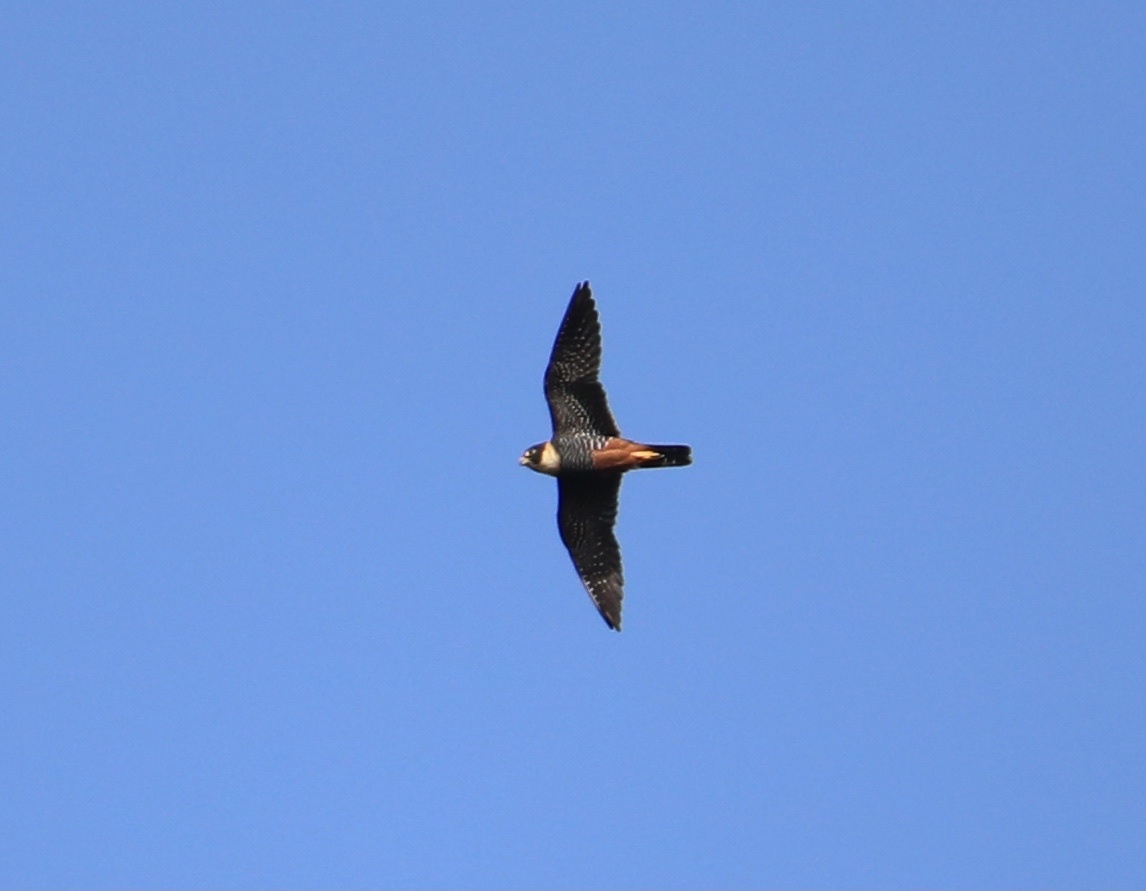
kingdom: Animalia
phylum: Chordata
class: Aves
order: Falconiformes
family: Falconidae
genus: Falco
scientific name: Falco rufigularis
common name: Bat falcon
